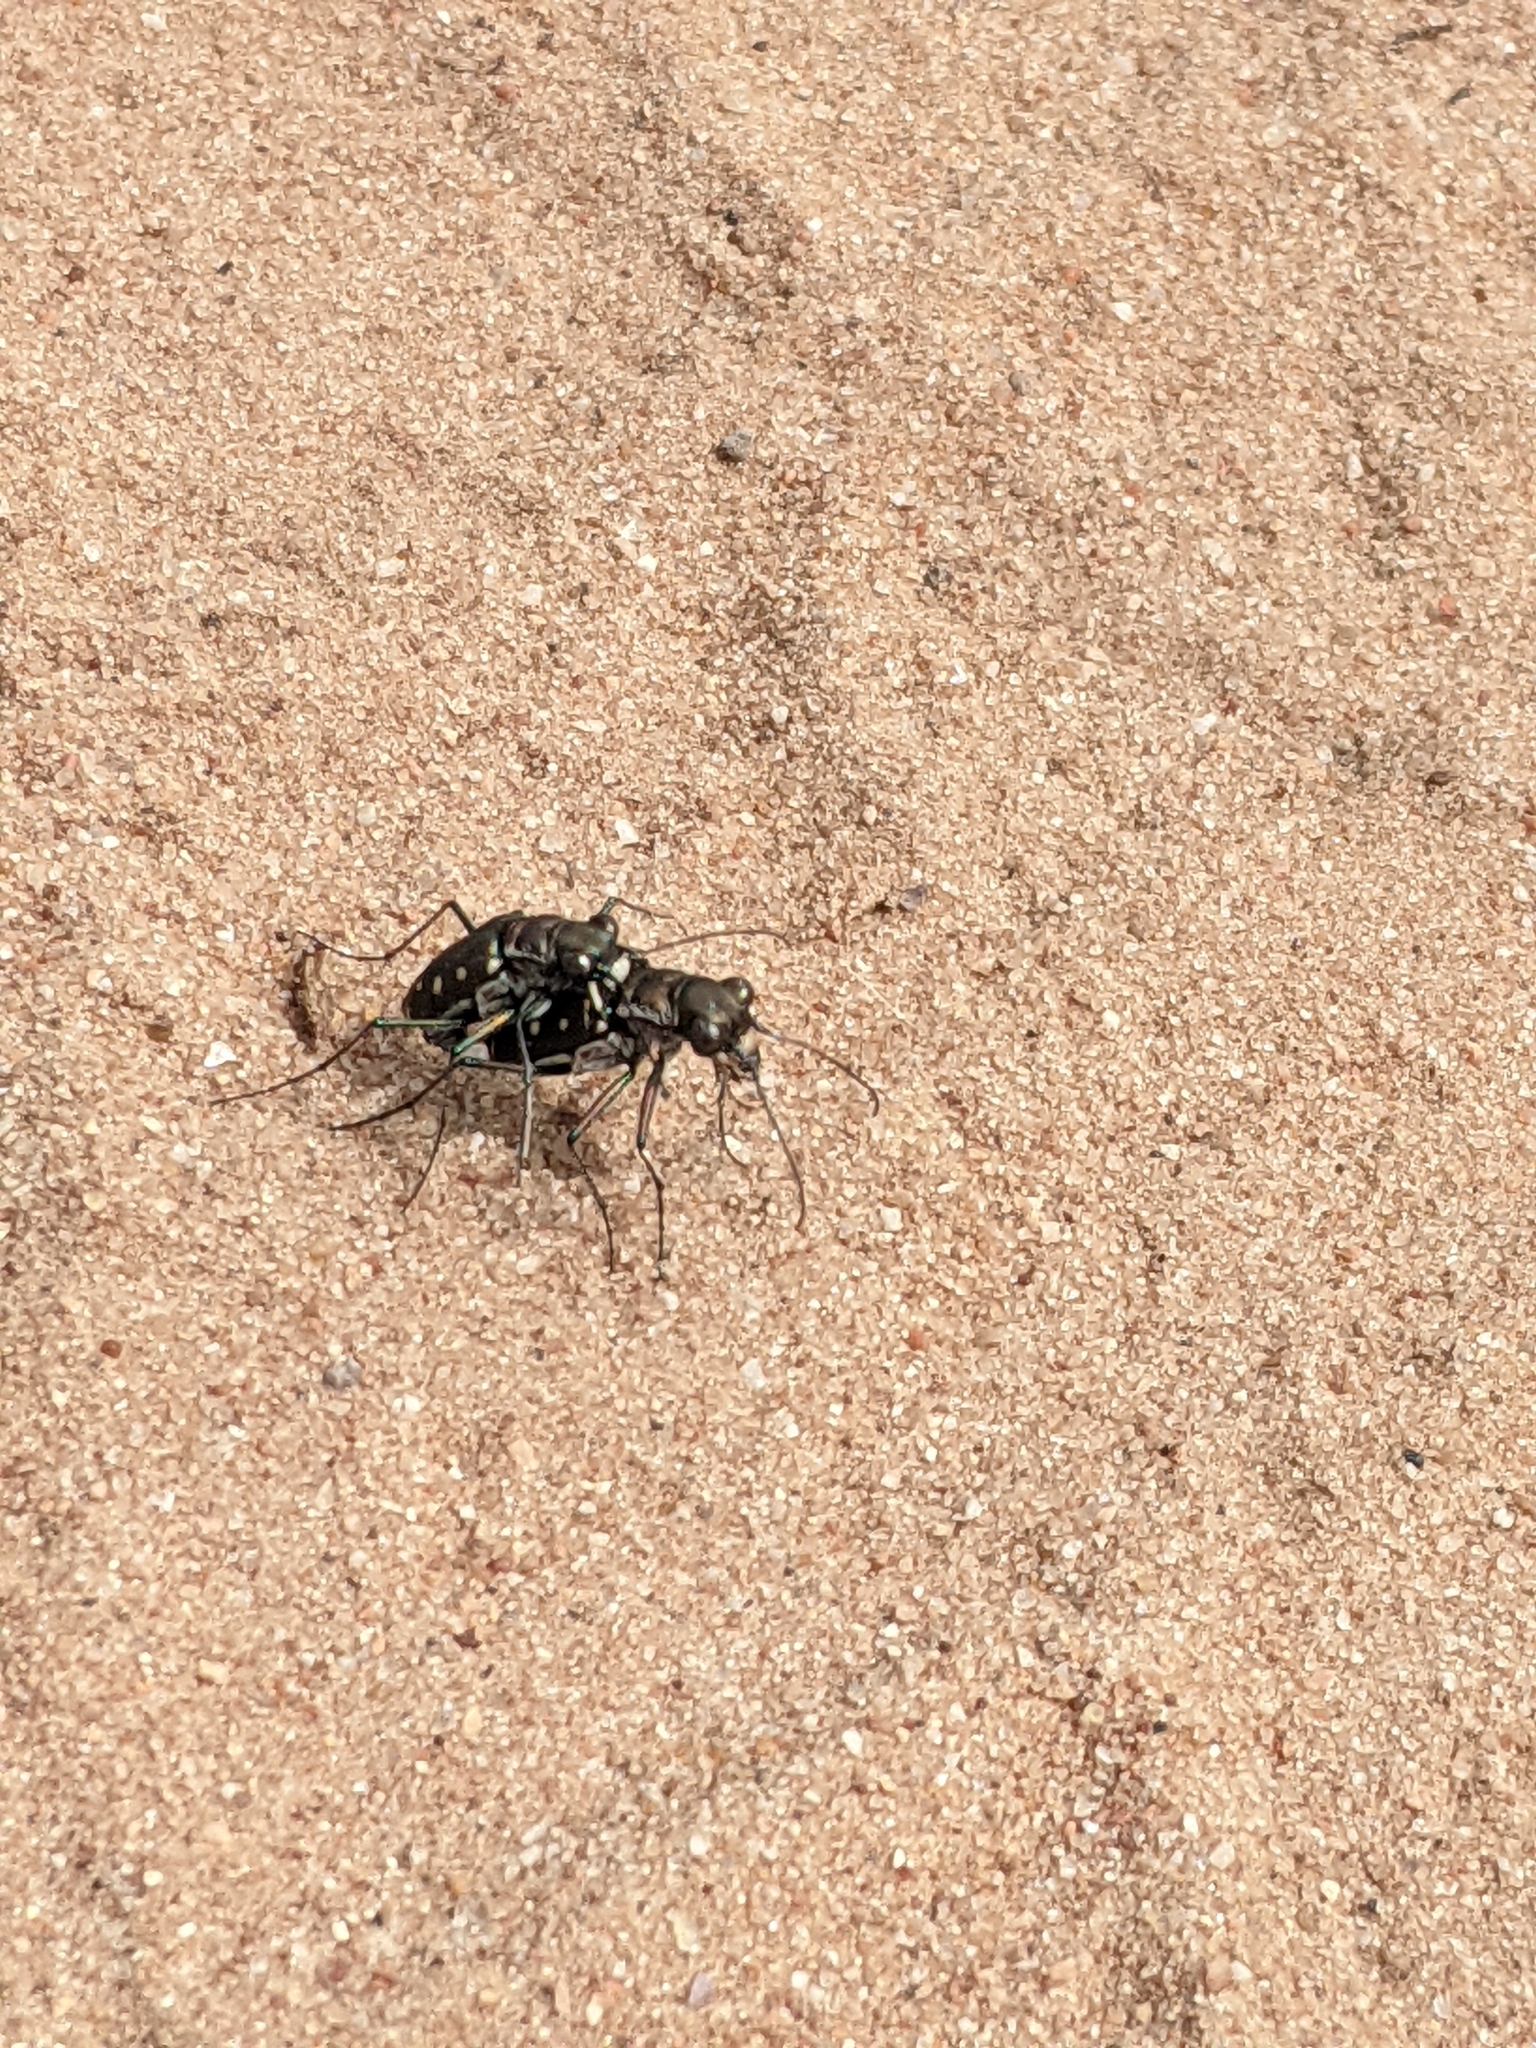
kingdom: Animalia
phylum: Arthropoda
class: Insecta
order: Coleoptera
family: Carabidae
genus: Cicindela
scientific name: Cicindela ocellata
